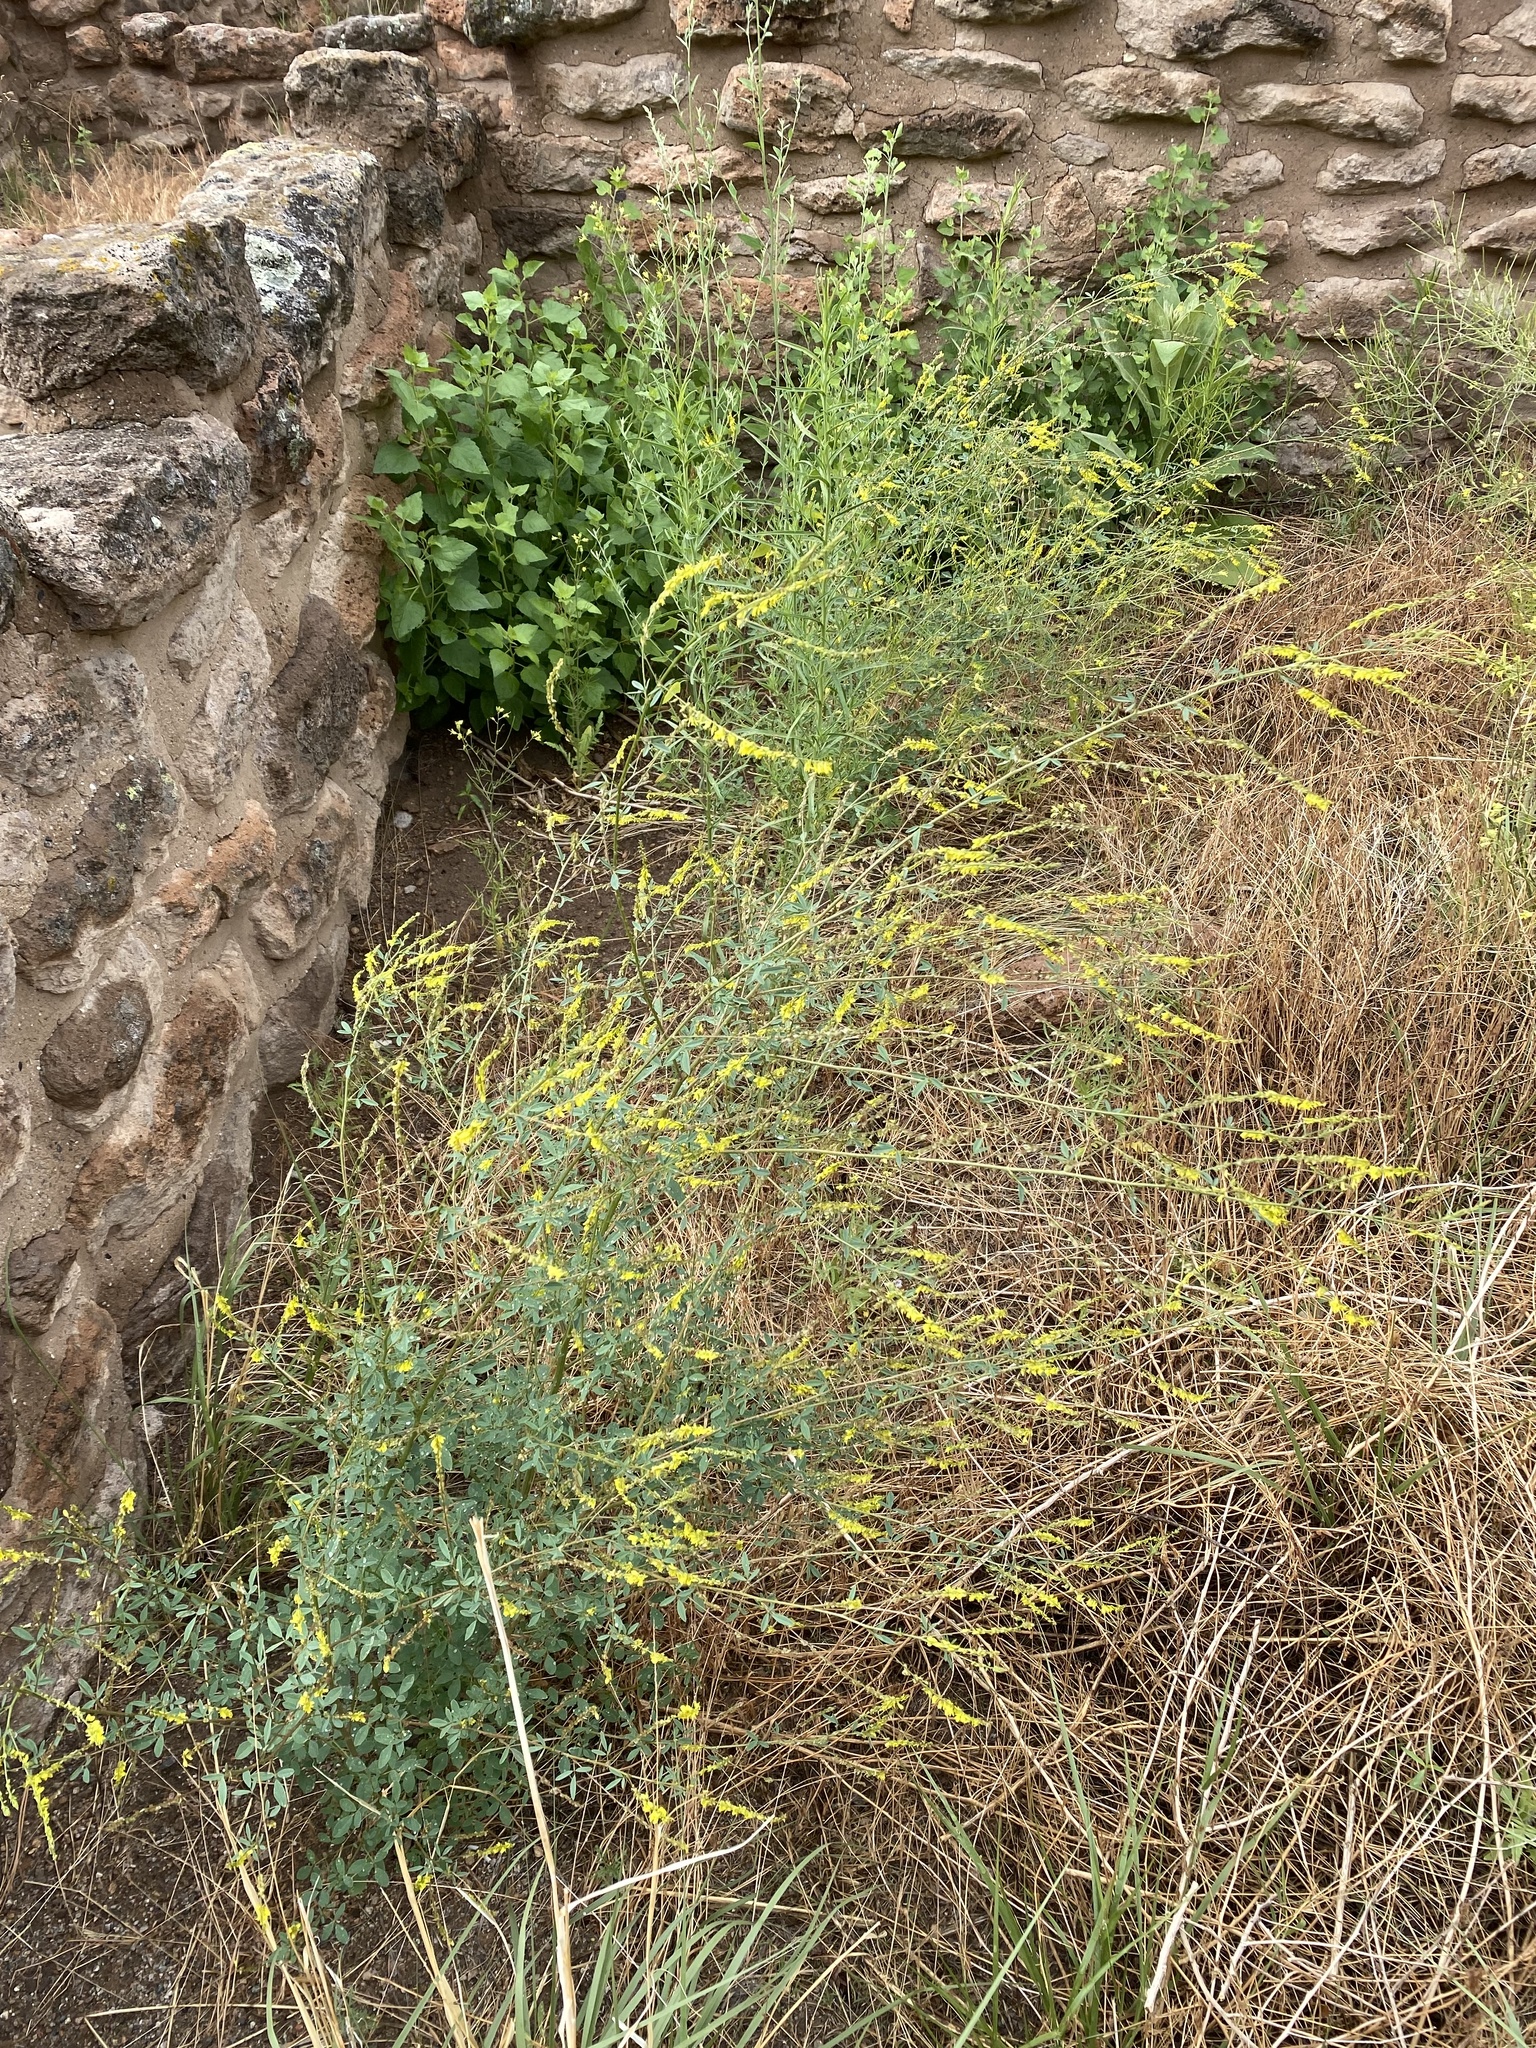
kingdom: Plantae
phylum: Tracheophyta
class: Magnoliopsida
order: Fabales
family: Fabaceae
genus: Melilotus
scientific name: Melilotus officinalis
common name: Sweetclover
